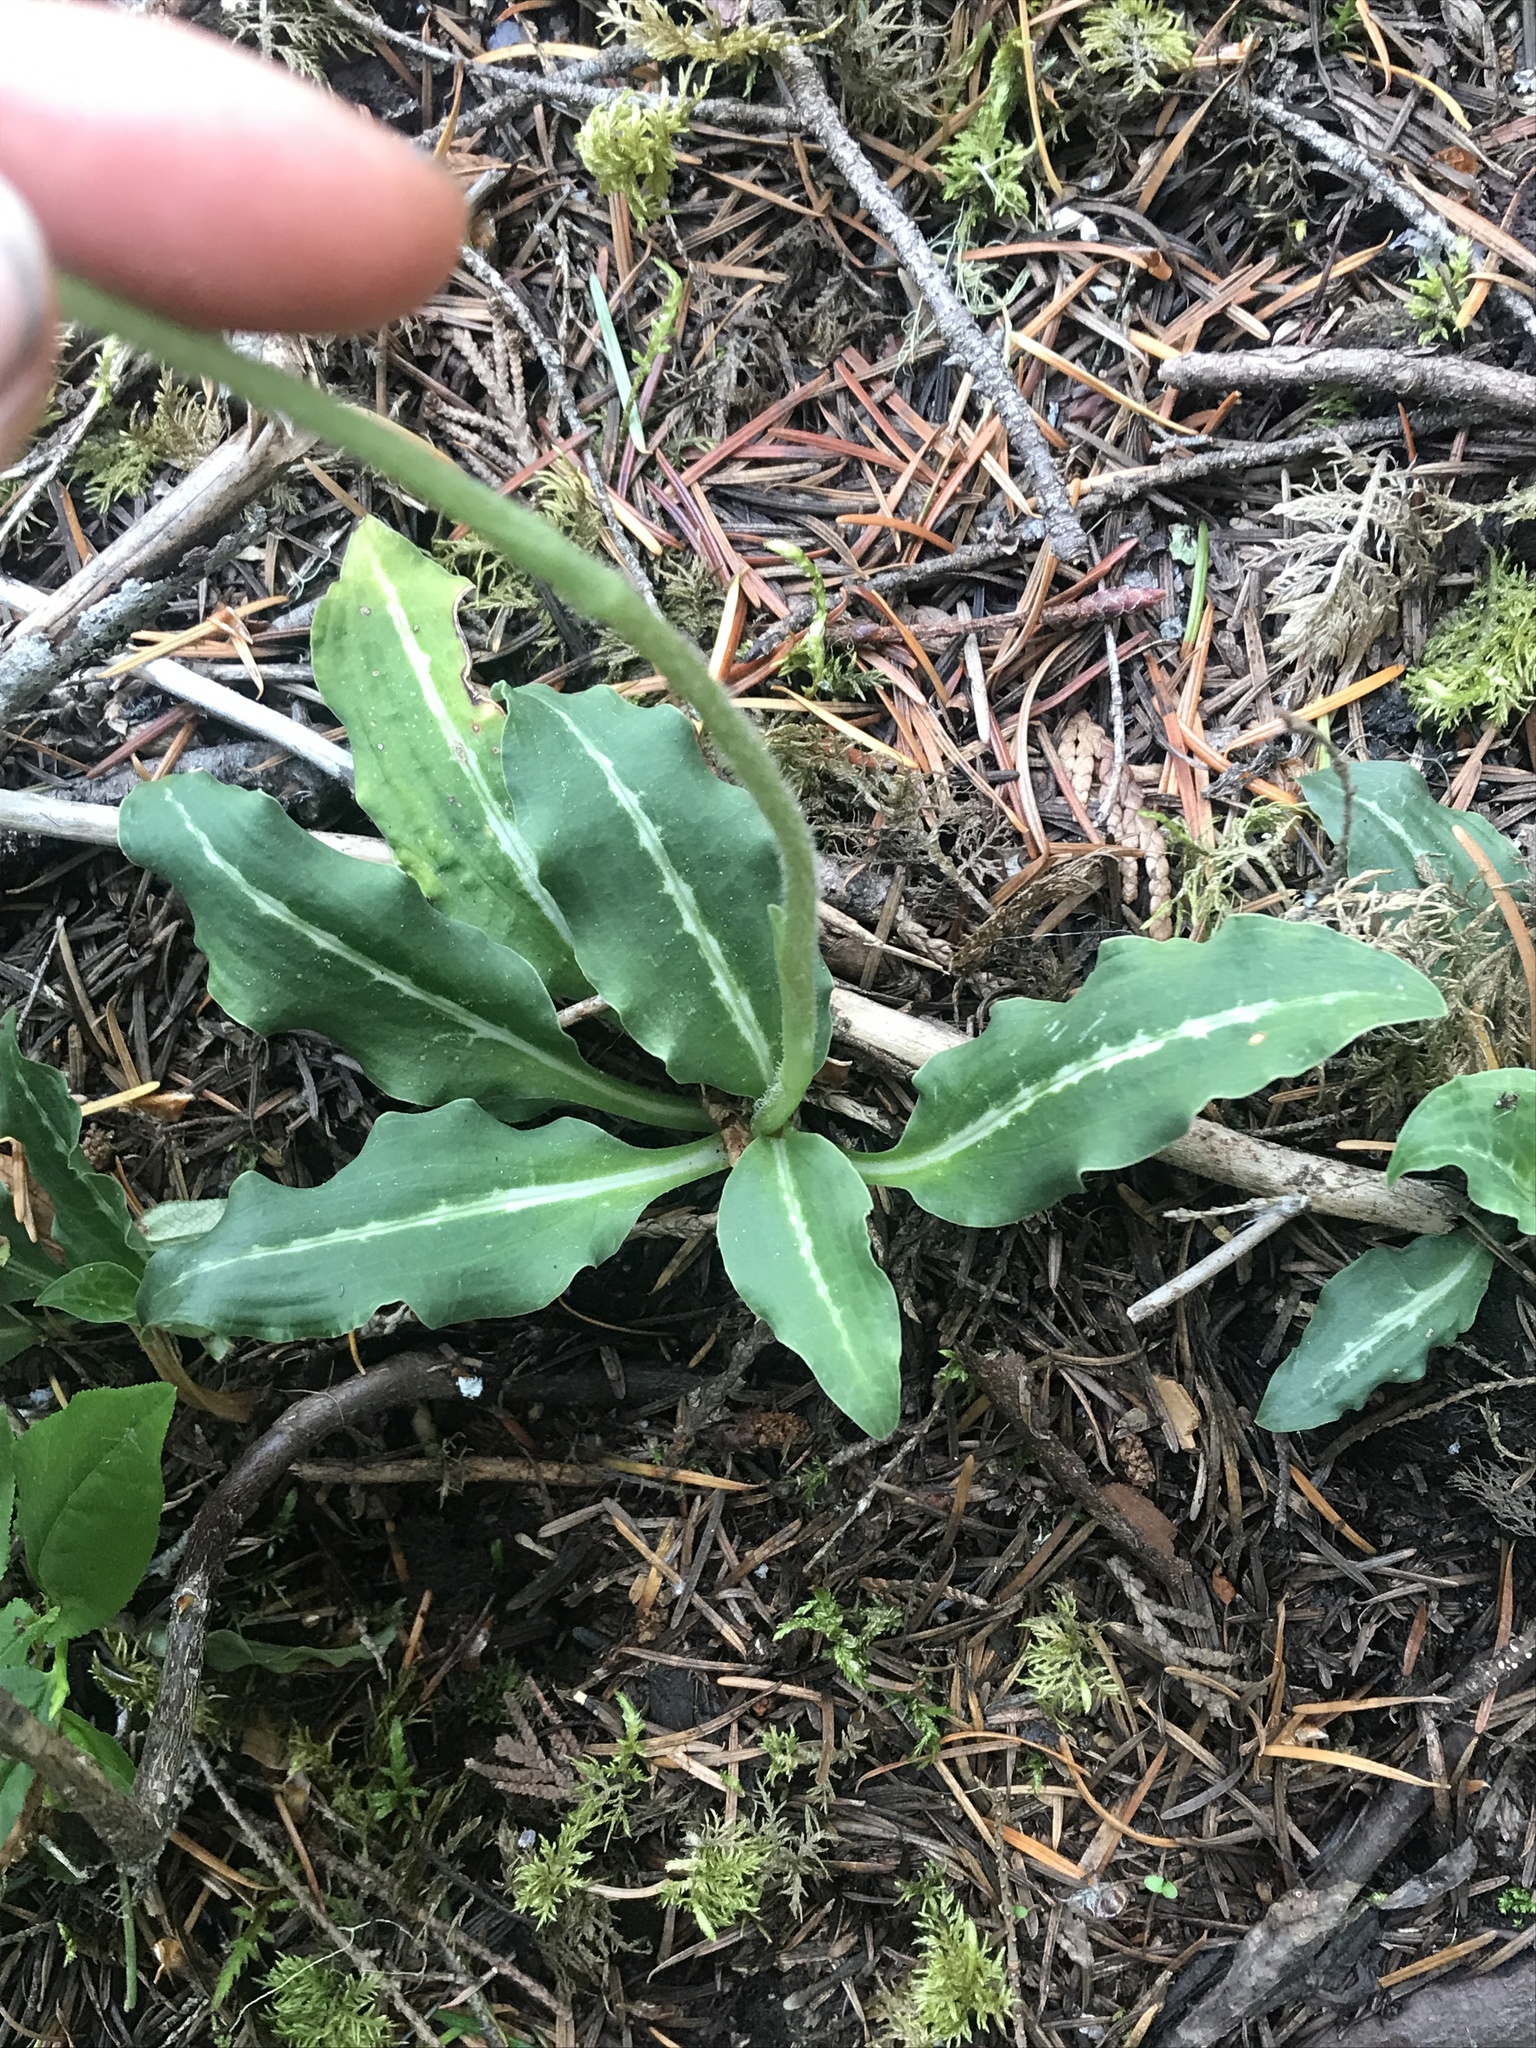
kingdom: Plantae
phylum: Tracheophyta
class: Liliopsida
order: Asparagales
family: Orchidaceae
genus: Goodyera
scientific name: Goodyera oblongifolia
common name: Giant rattlesnake-plantain
